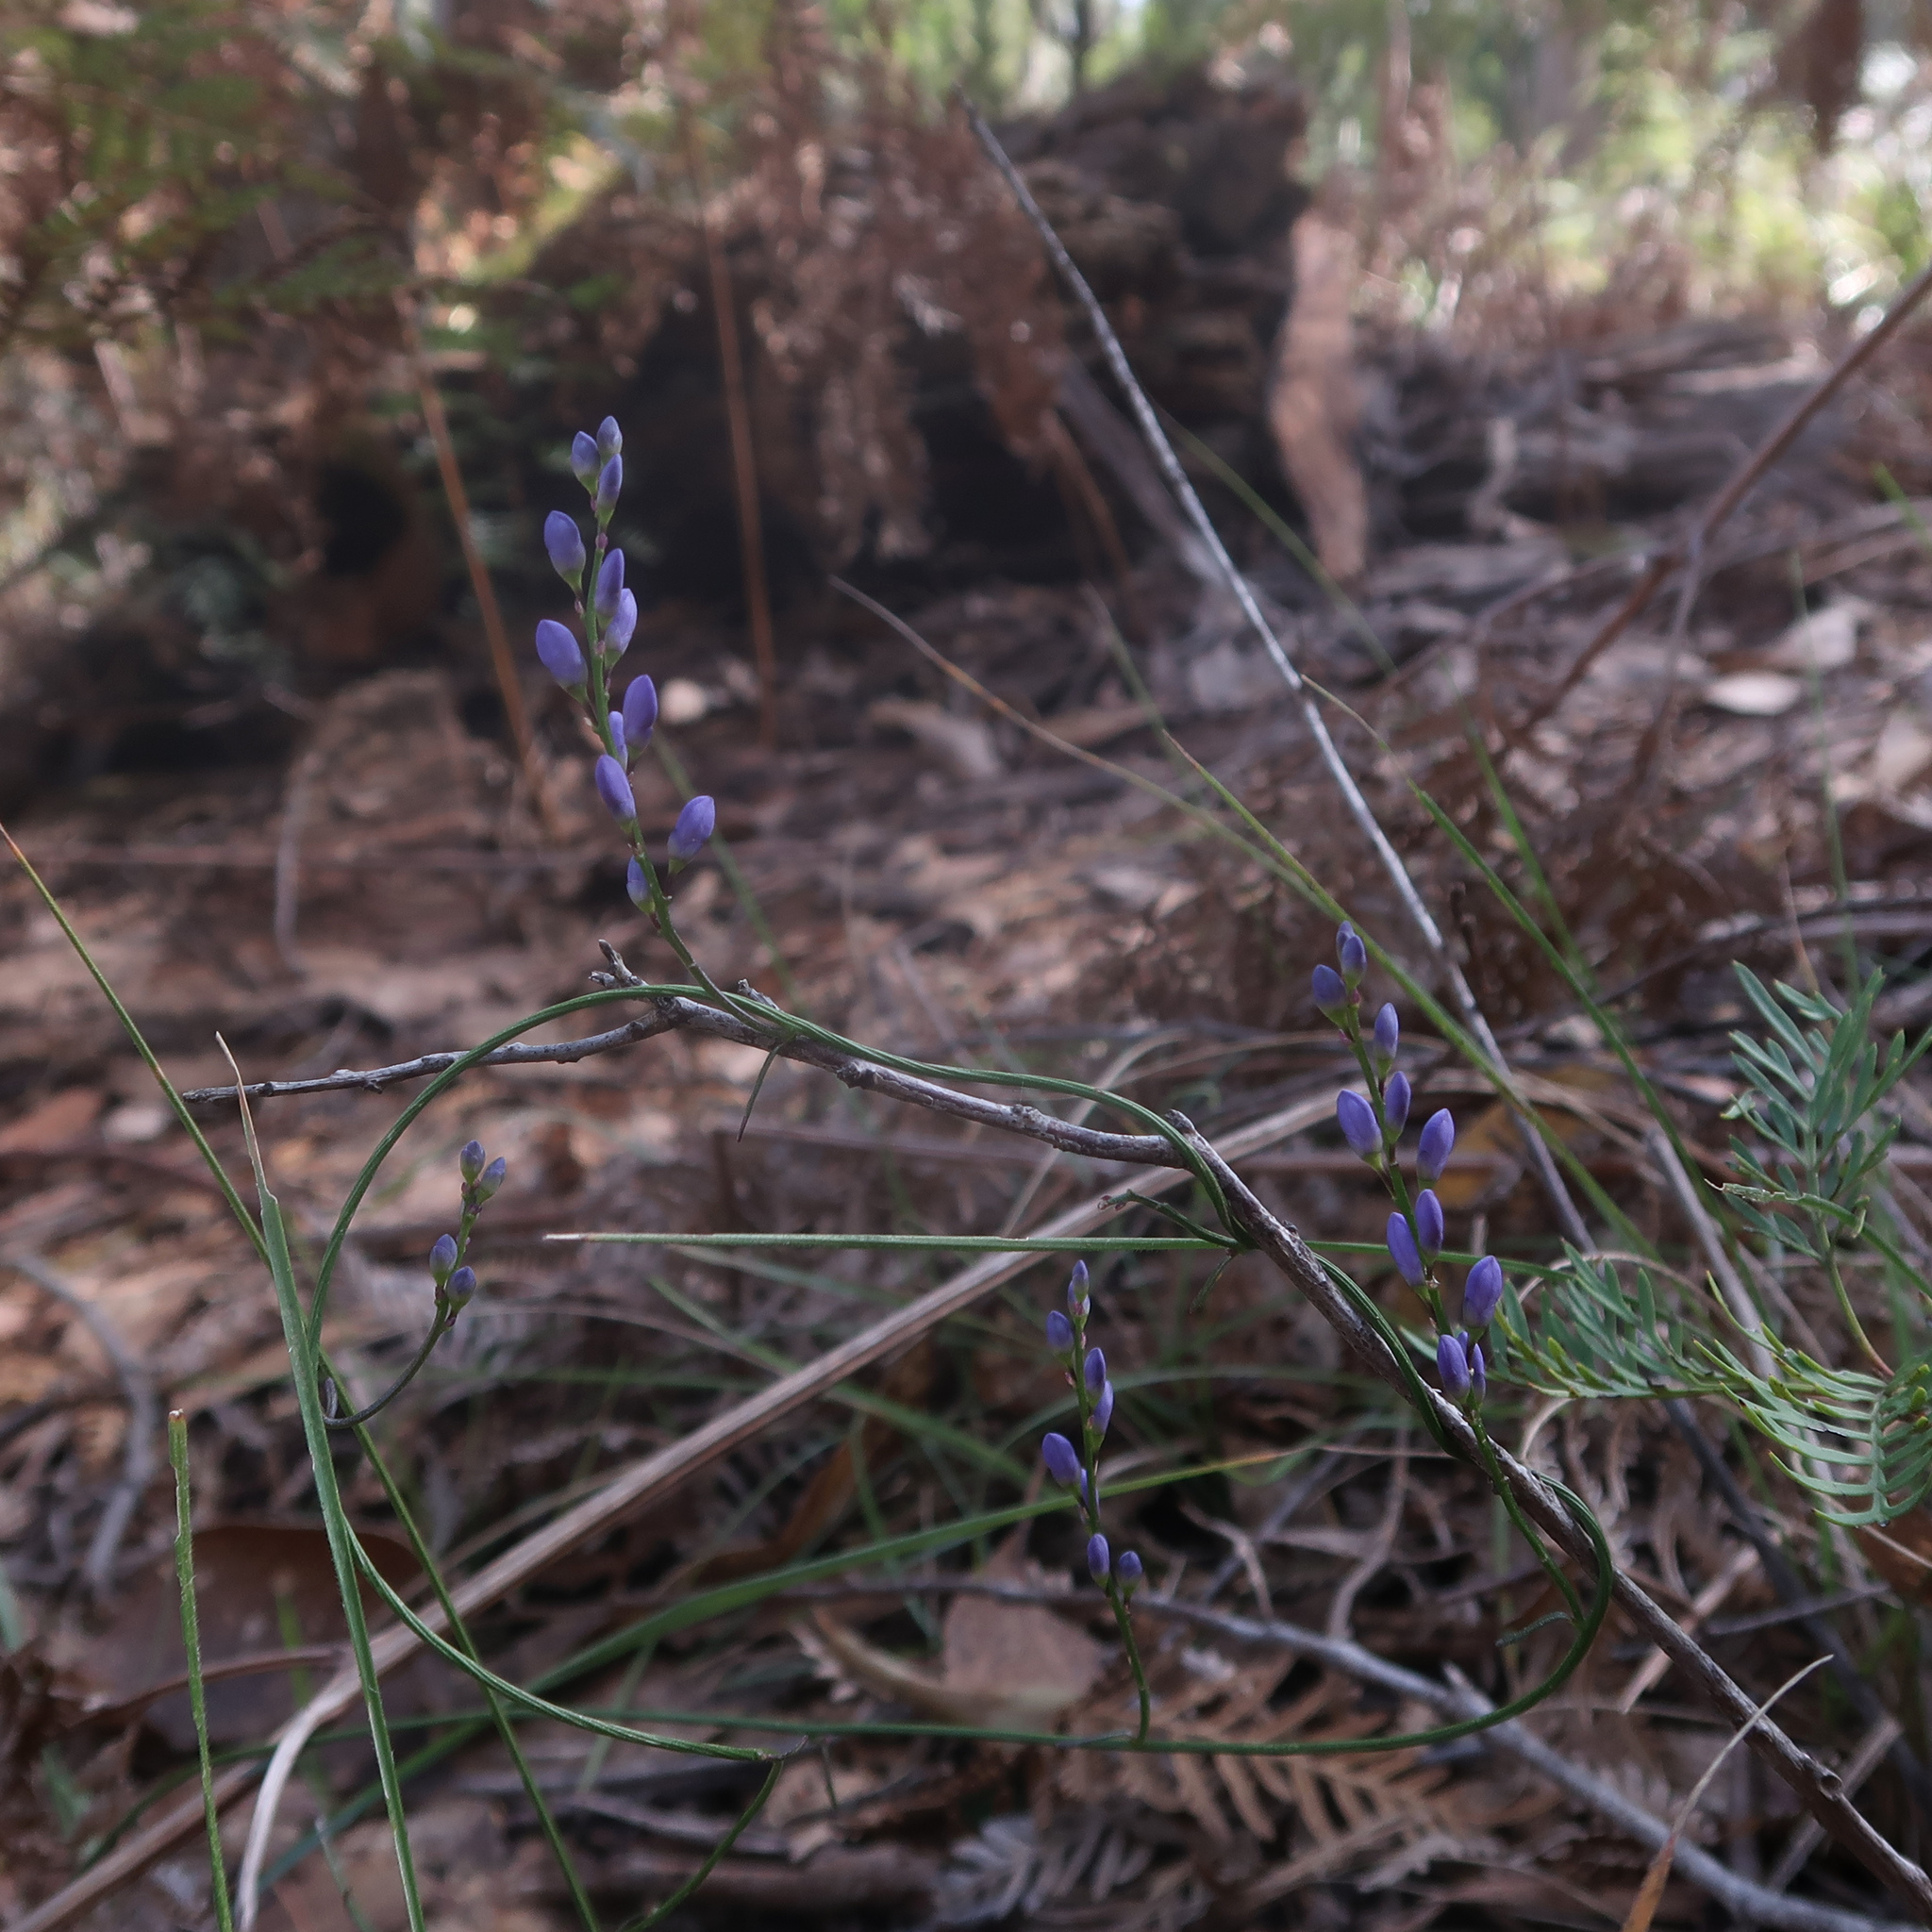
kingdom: Plantae
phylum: Tracheophyta
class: Magnoliopsida
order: Fabales
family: Polygalaceae
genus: Comesperma
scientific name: Comesperma volubile
